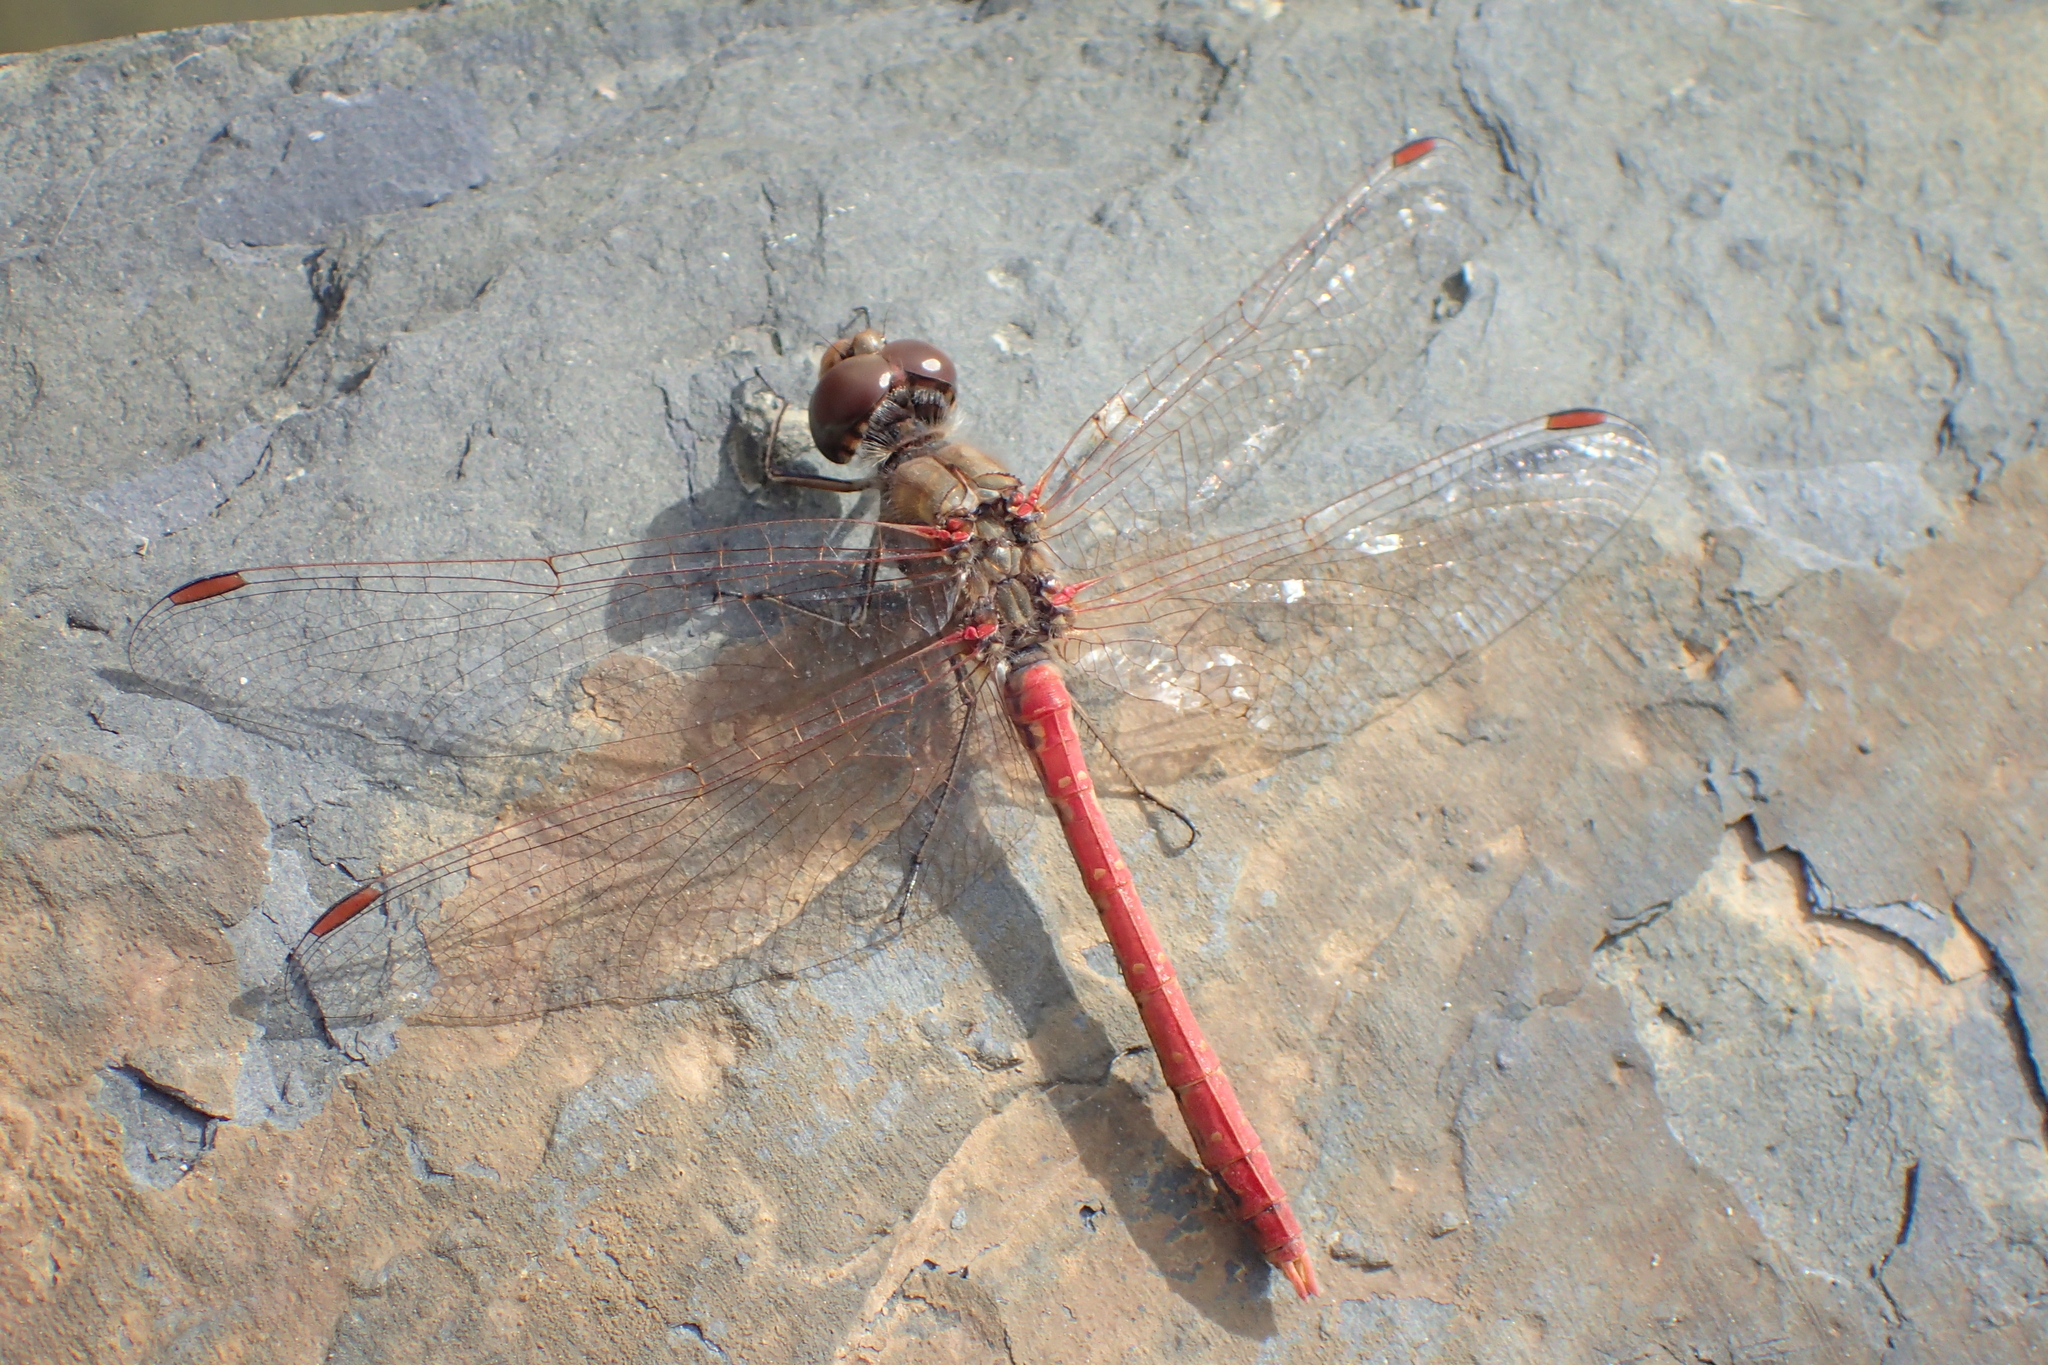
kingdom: Animalia
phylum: Arthropoda
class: Insecta
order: Odonata
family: Libellulidae
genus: Sympetrum
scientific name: Sympetrum sinaiticum
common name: Desert darter
